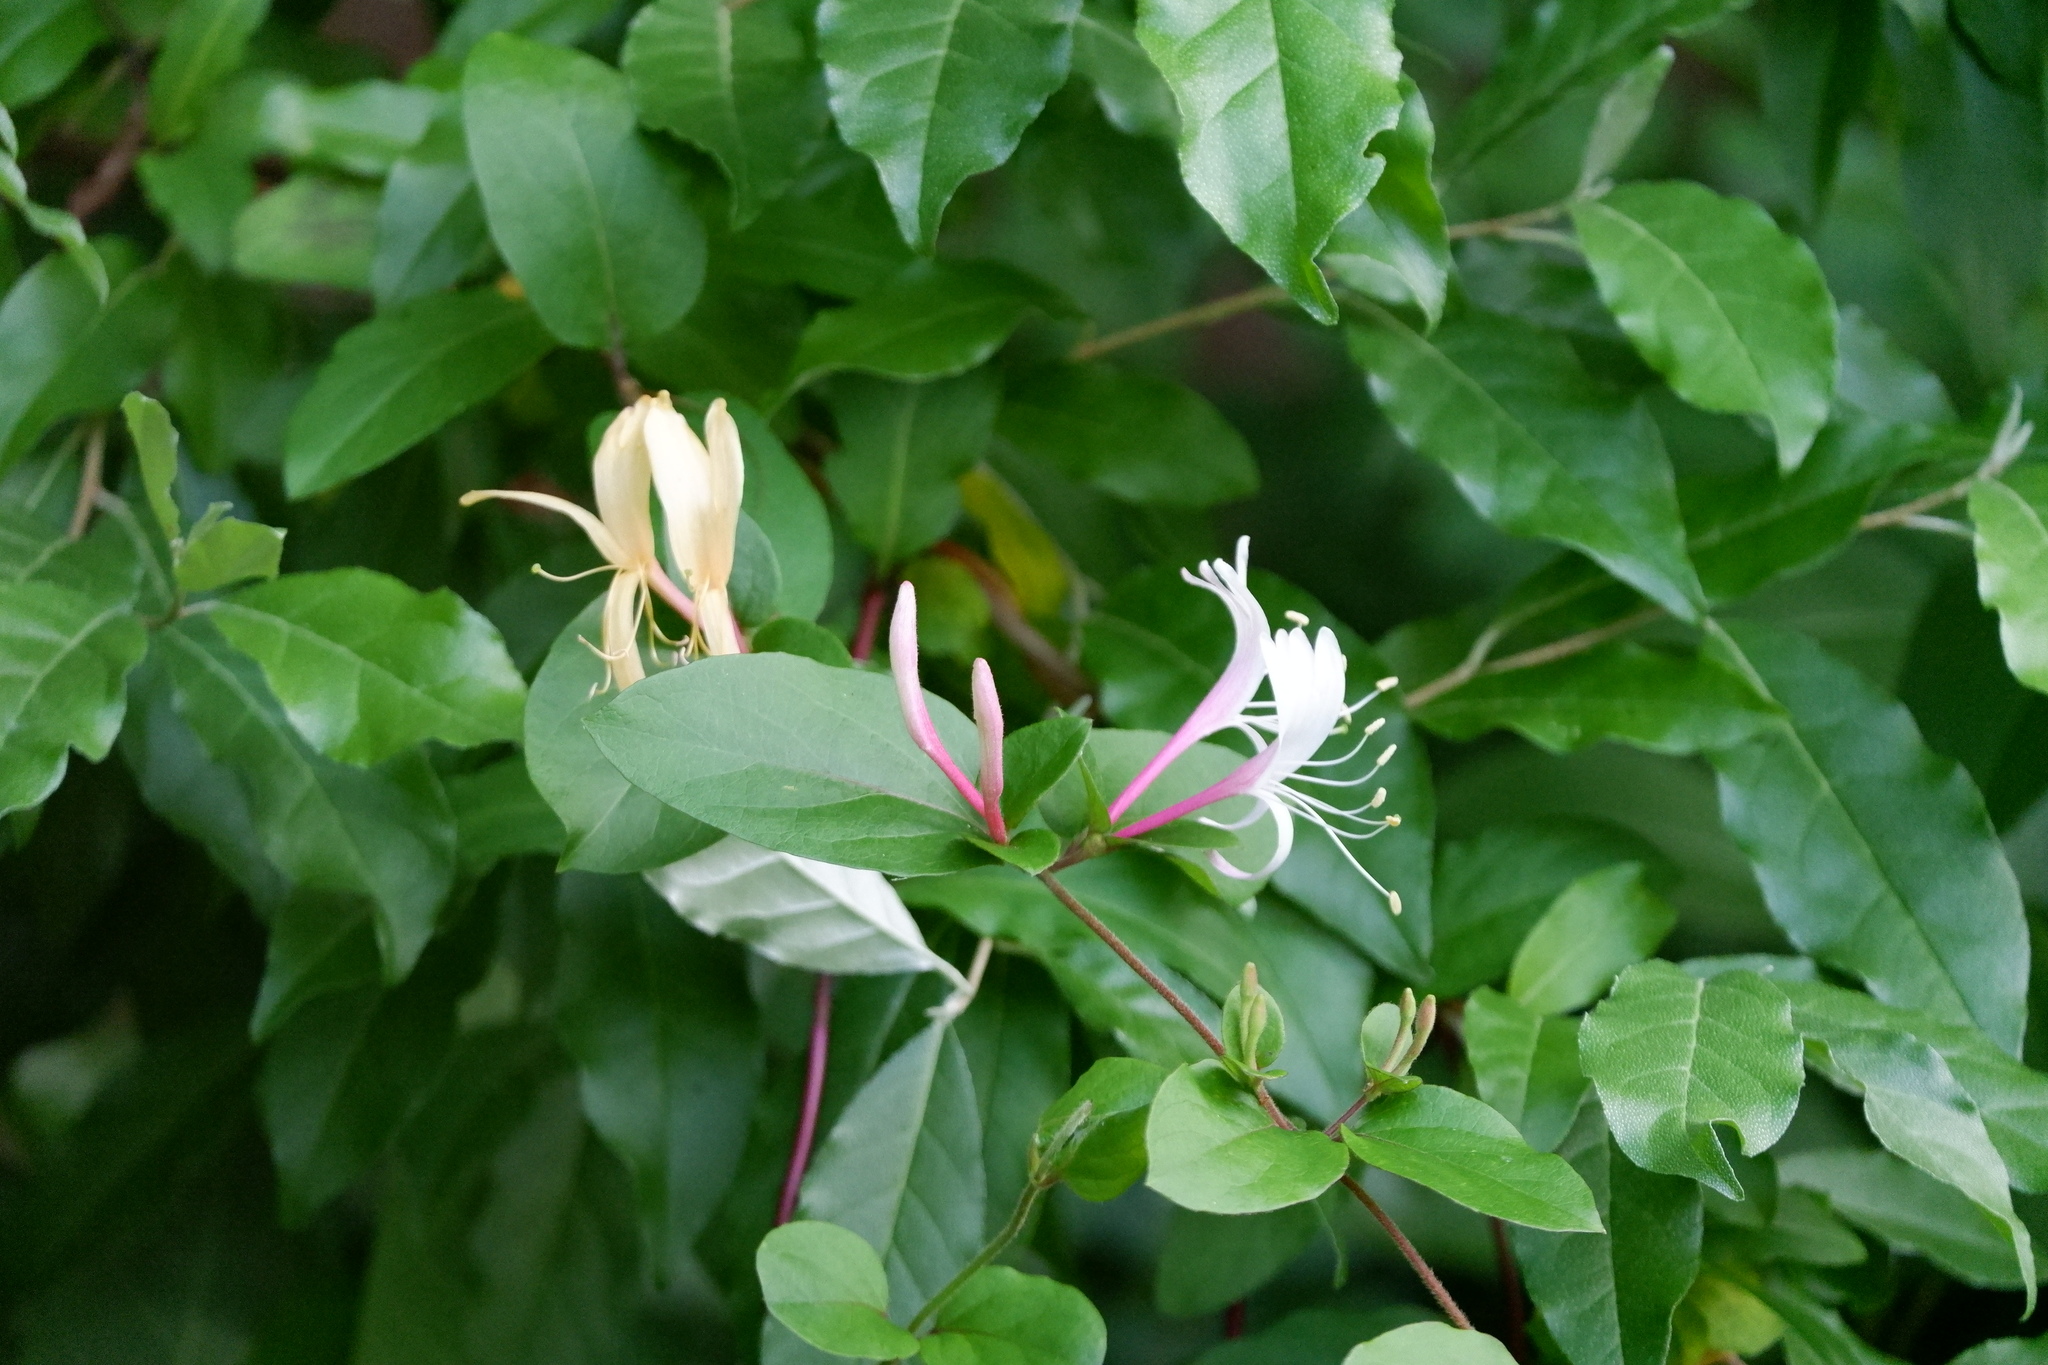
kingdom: Plantae
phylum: Tracheophyta
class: Magnoliopsida
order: Dipsacales
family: Caprifoliaceae
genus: Lonicera
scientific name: Lonicera japonica
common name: Japanese honeysuckle
